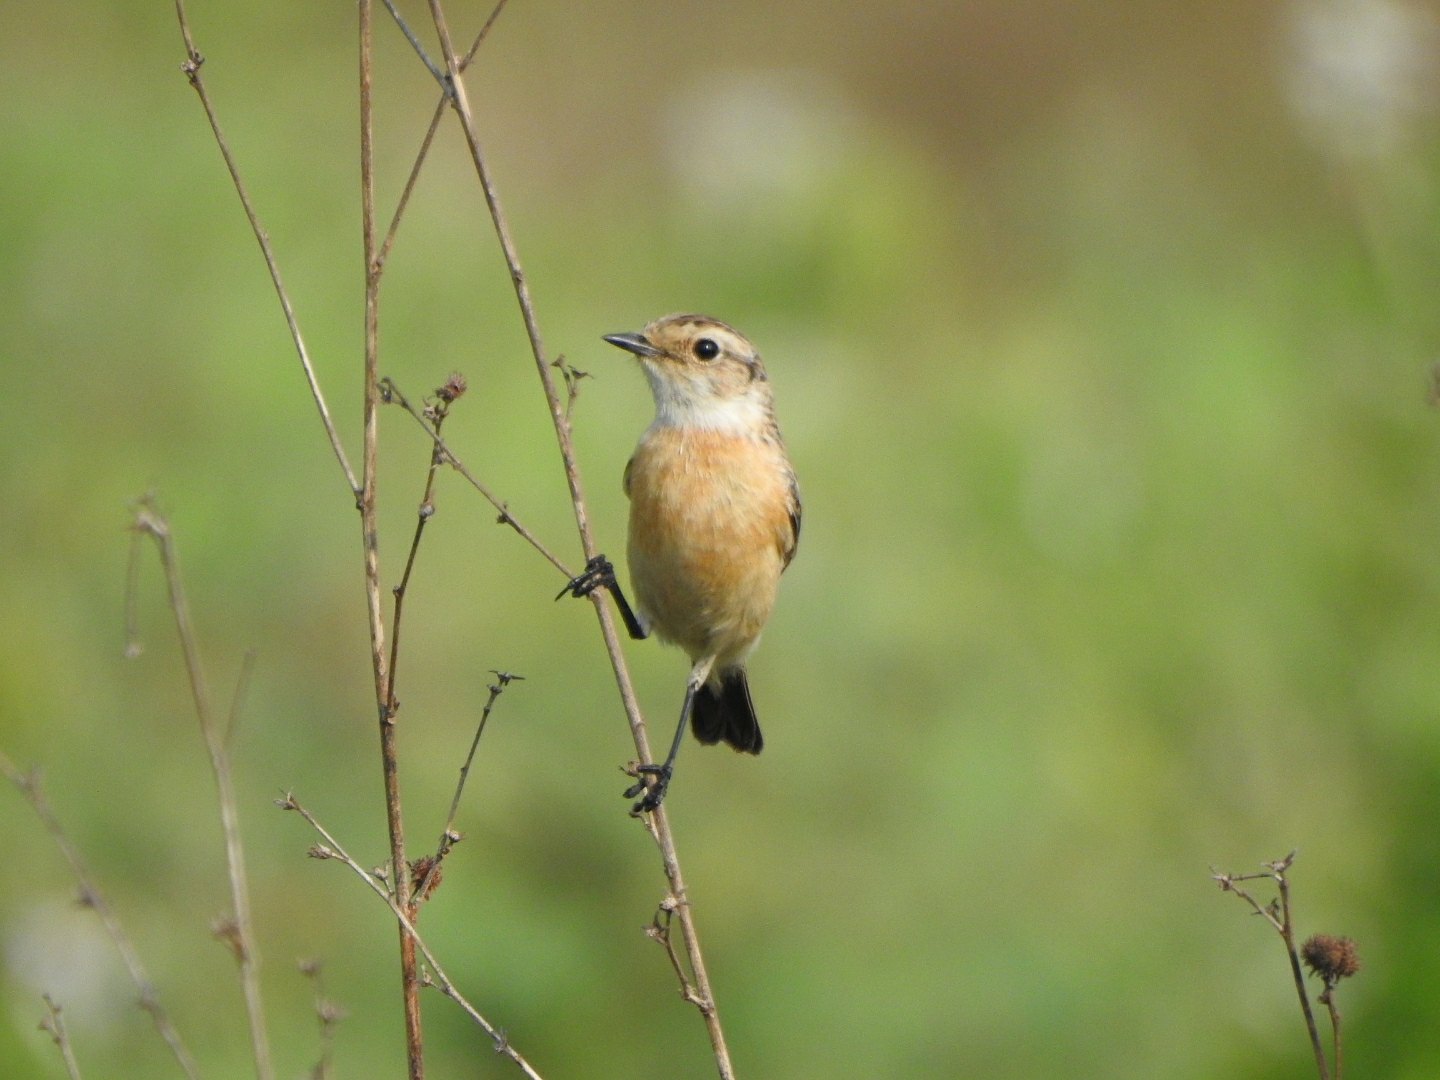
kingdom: Animalia
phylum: Chordata
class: Aves
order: Passeriformes
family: Muscicapidae
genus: Saxicola
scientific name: Saxicola maurus
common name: Siberian stonechat
